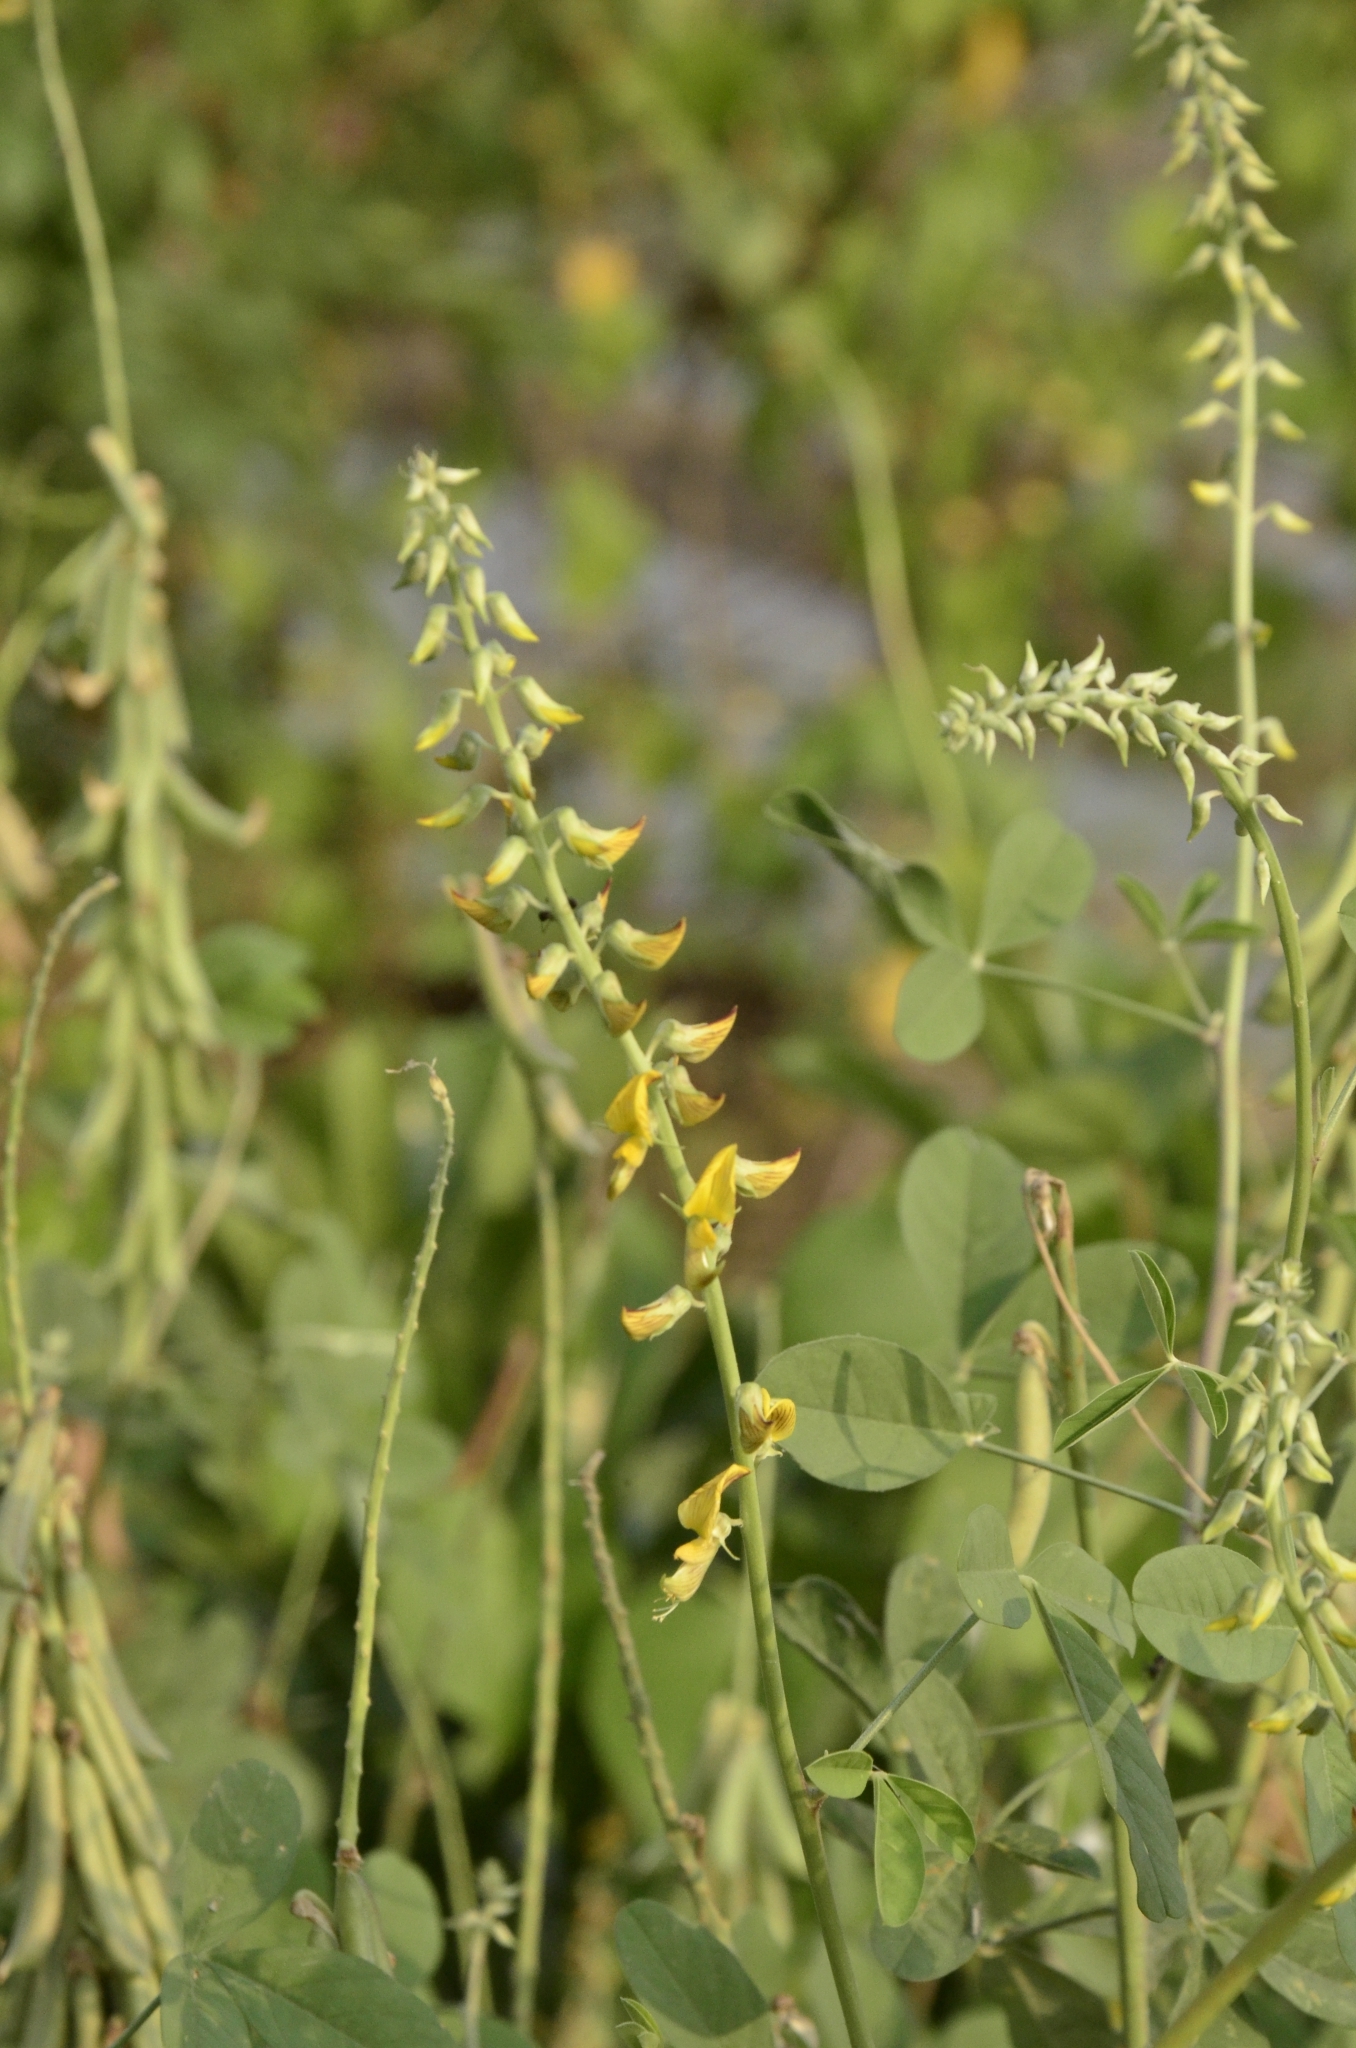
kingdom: Plantae
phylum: Tracheophyta
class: Magnoliopsida
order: Fabales
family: Fabaceae
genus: Crotalaria
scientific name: Crotalaria pallida
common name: Smooth rattlebox
